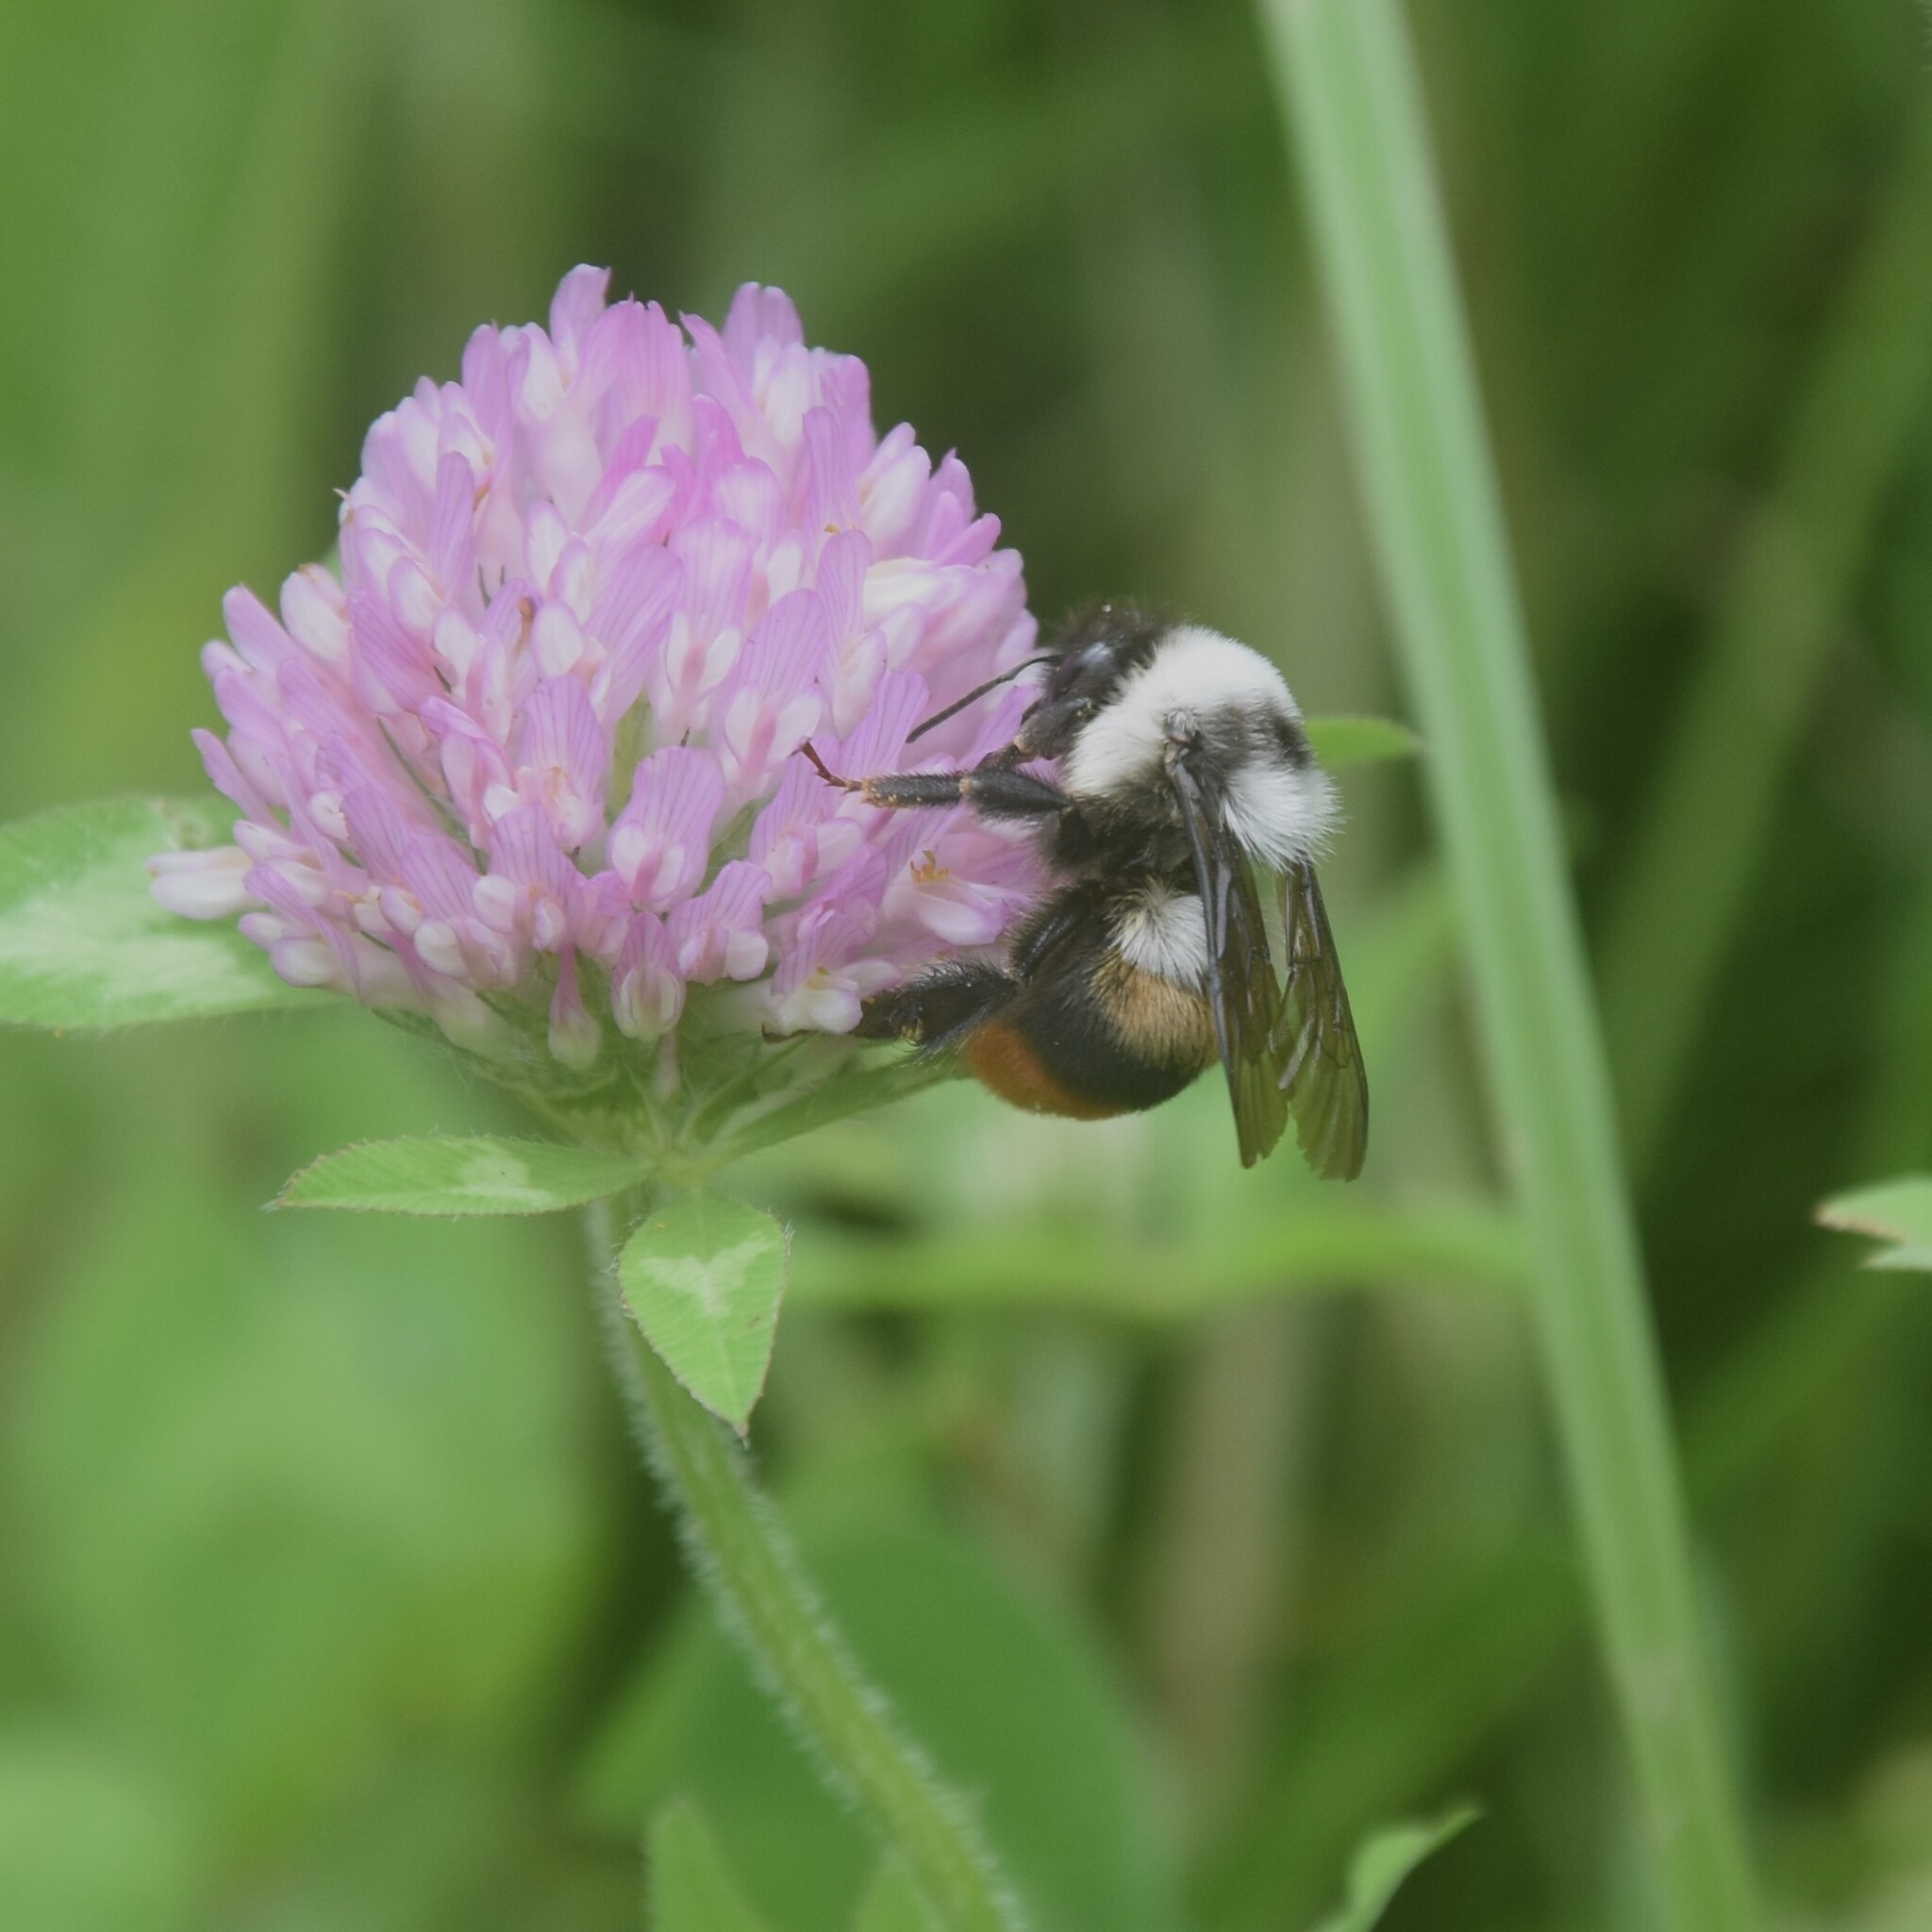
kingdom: Animalia
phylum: Arthropoda
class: Insecta
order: Hymenoptera
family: Apidae
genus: Bombus
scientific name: Bombus tunicatus
